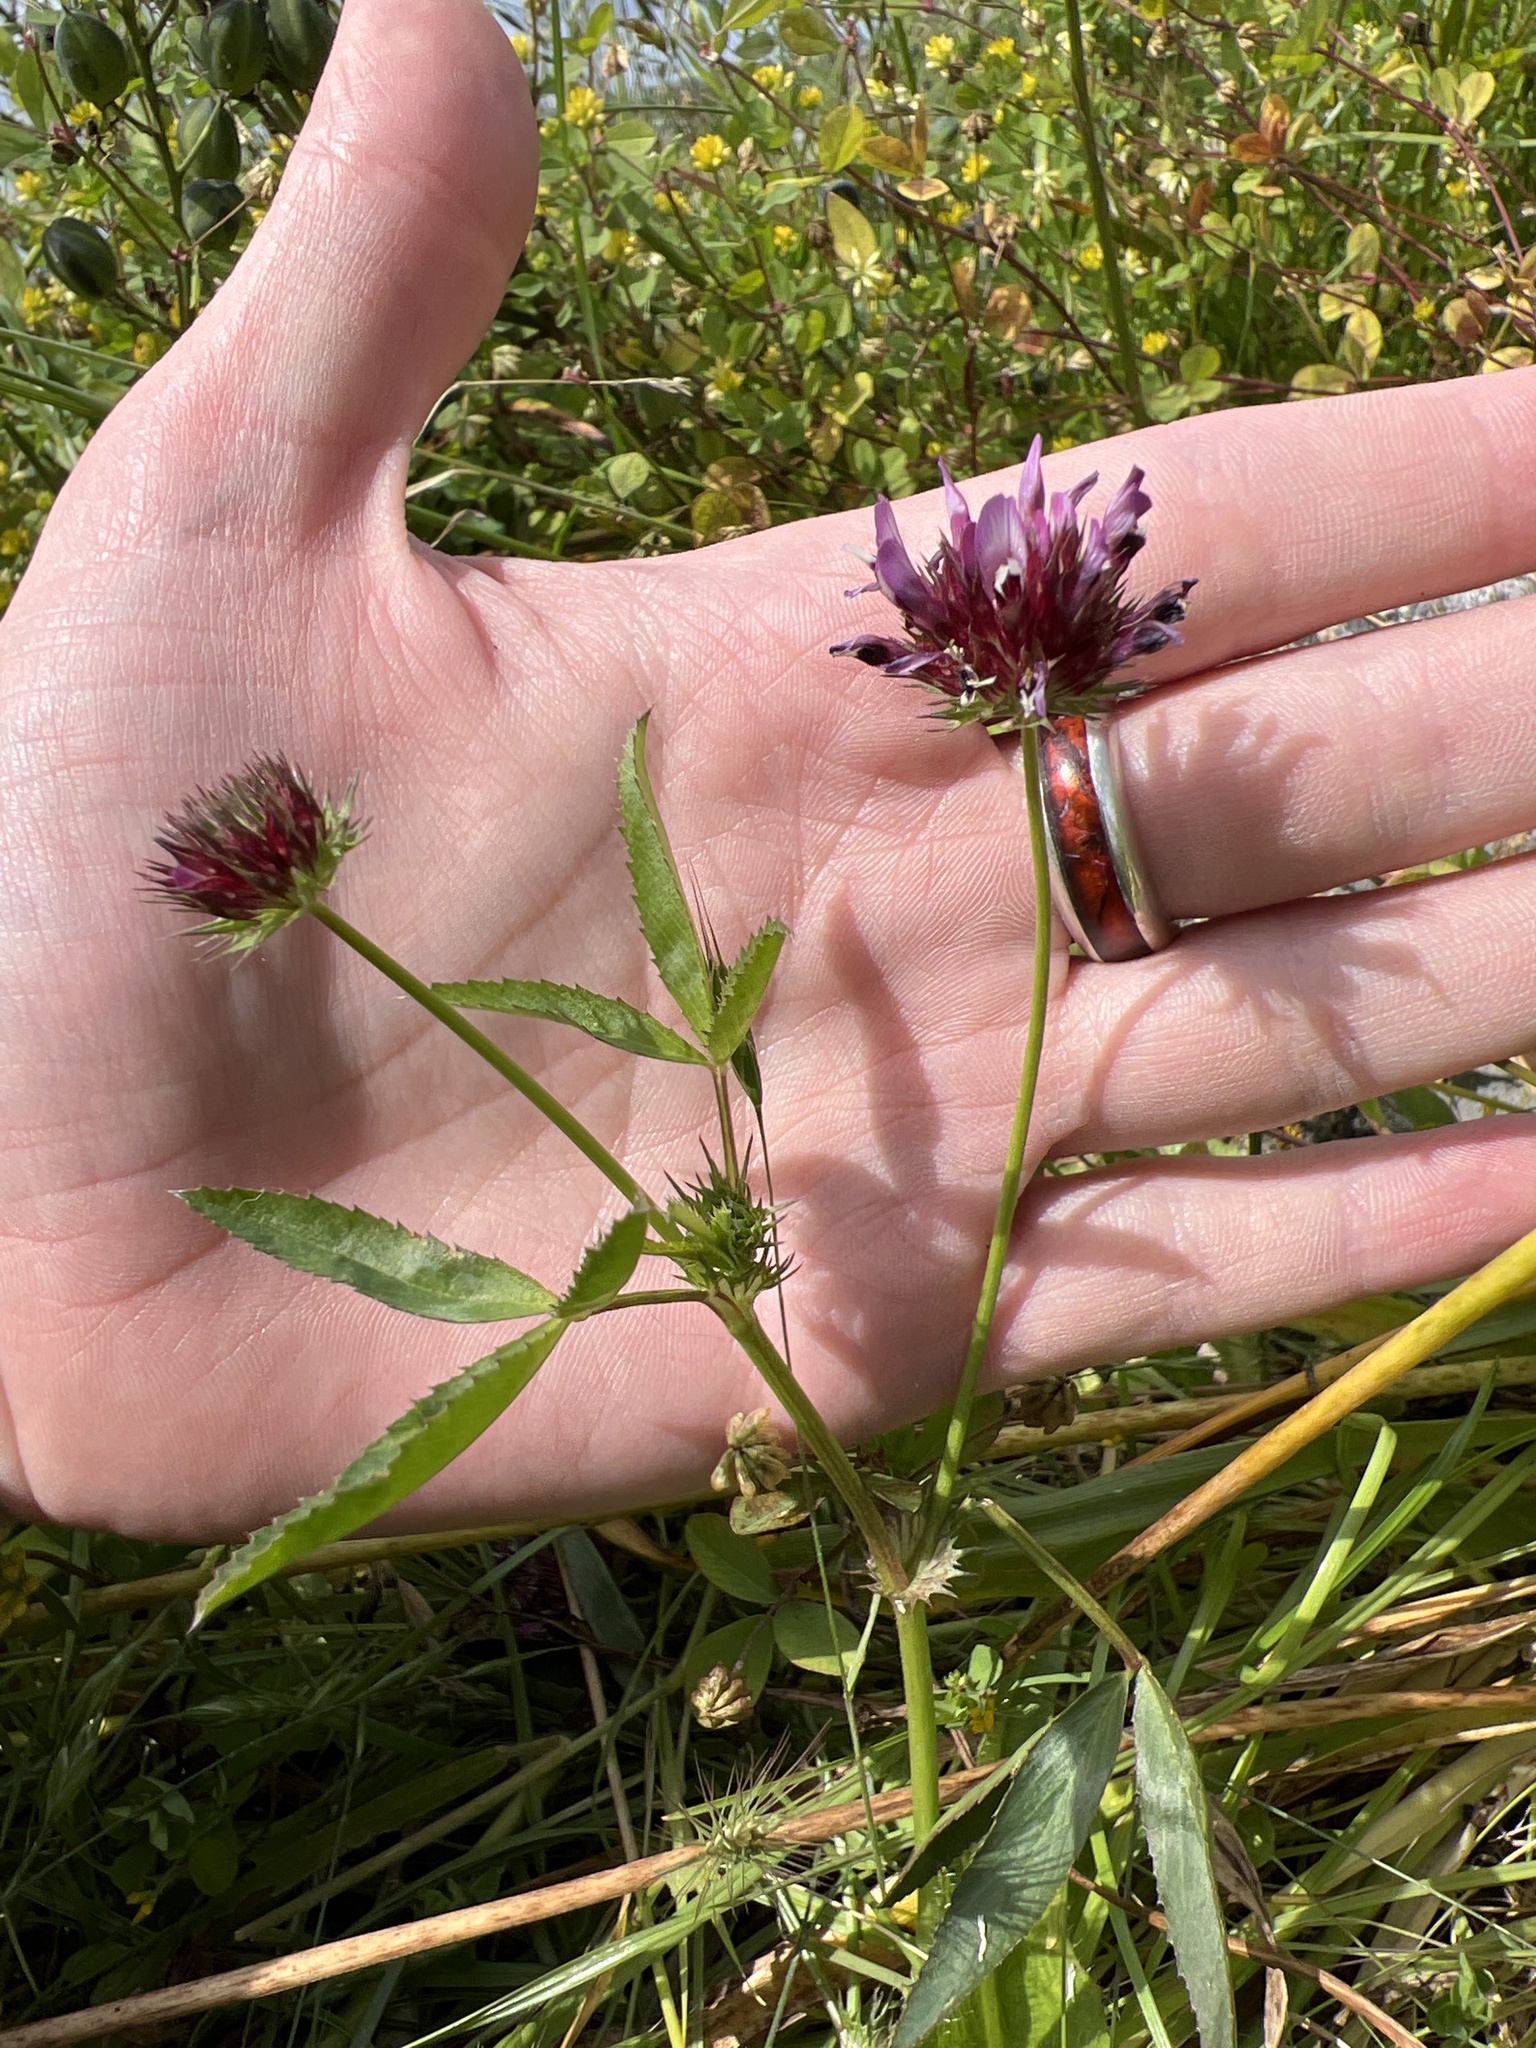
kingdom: Plantae
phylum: Tracheophyta
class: Magnoliopsida
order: Fabales
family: Fabaceae
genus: Trifolium
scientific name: Trifolium willdenovii
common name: Tomcat clover
